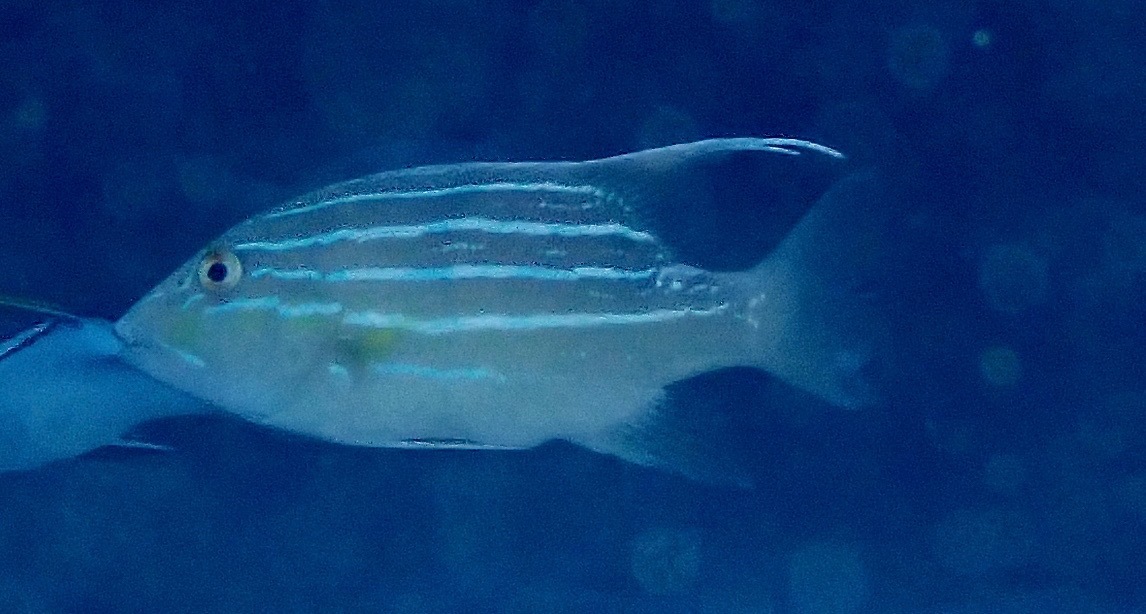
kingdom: Animalia
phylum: Chordata
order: Perciformes
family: Lutjanidae
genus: Symphorus
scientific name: Symphorus nematophorus
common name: Chinamanfish
